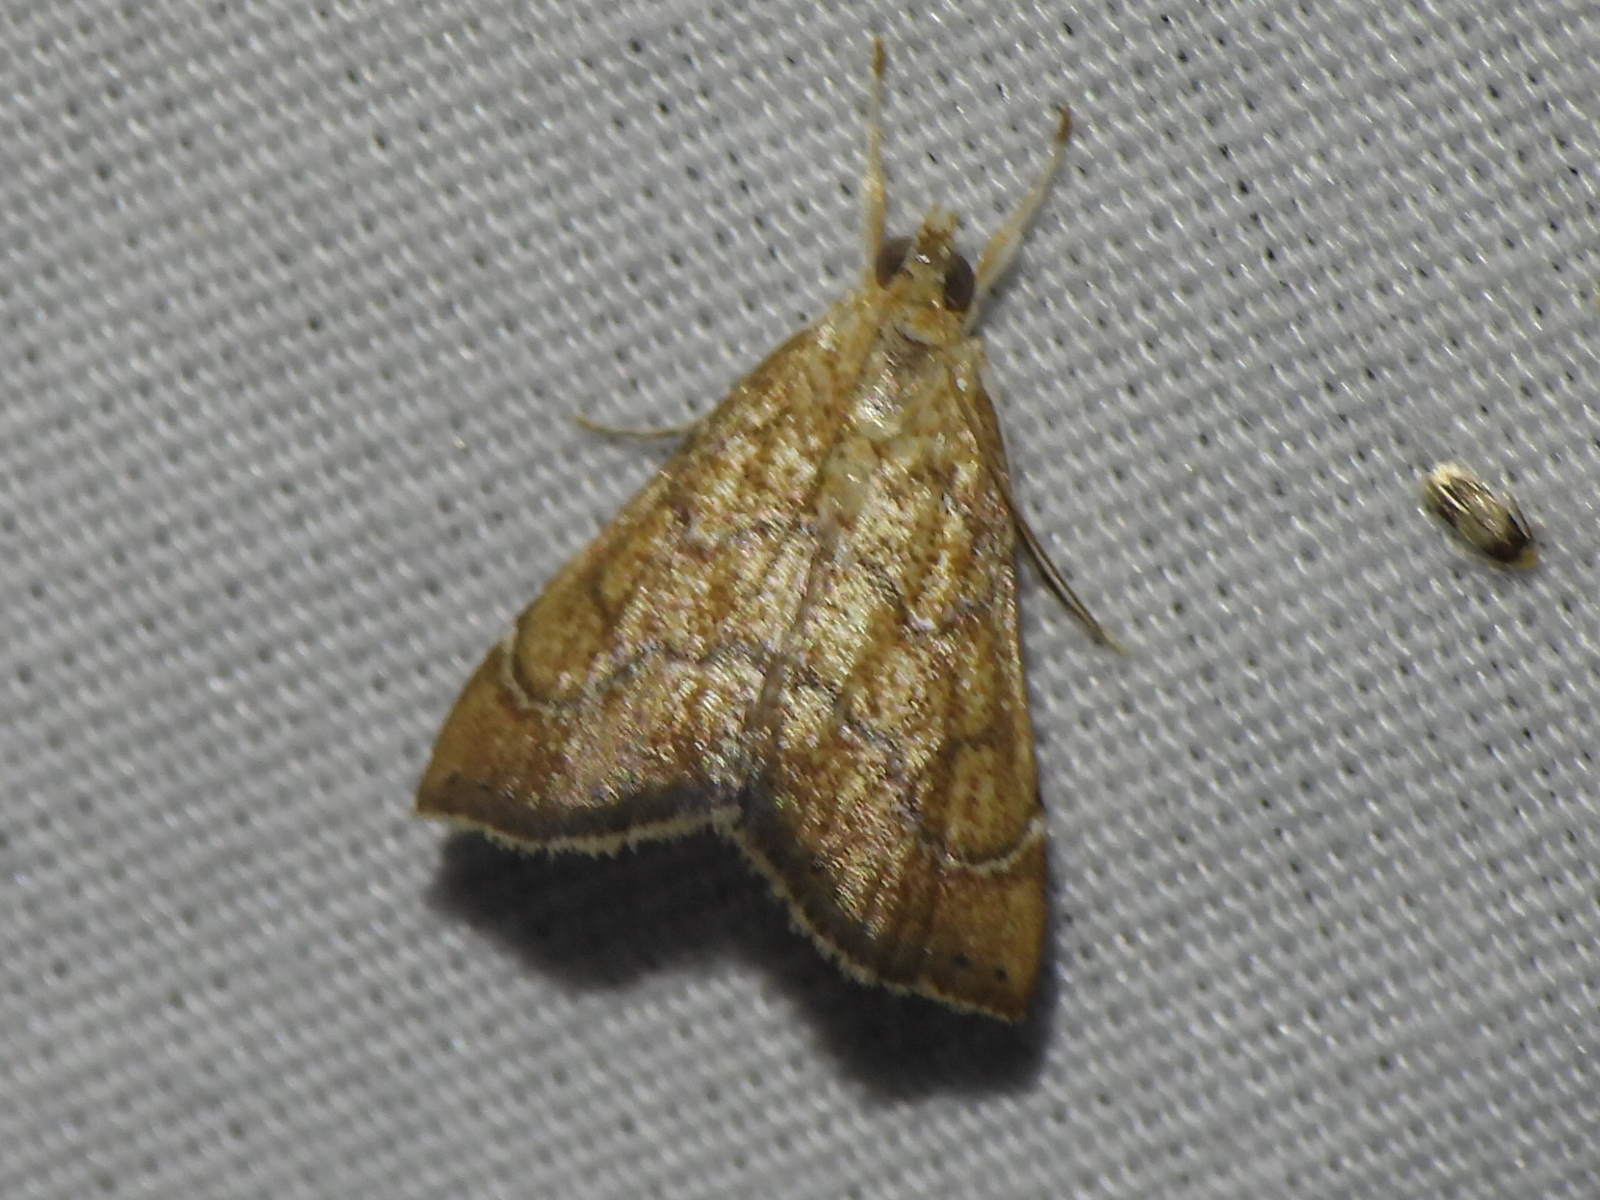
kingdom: Animalia
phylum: Arthropoda
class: Insecta
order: Lepidoptera
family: Crambidae
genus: Aethiophysa
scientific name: Aethiophysa dualis
